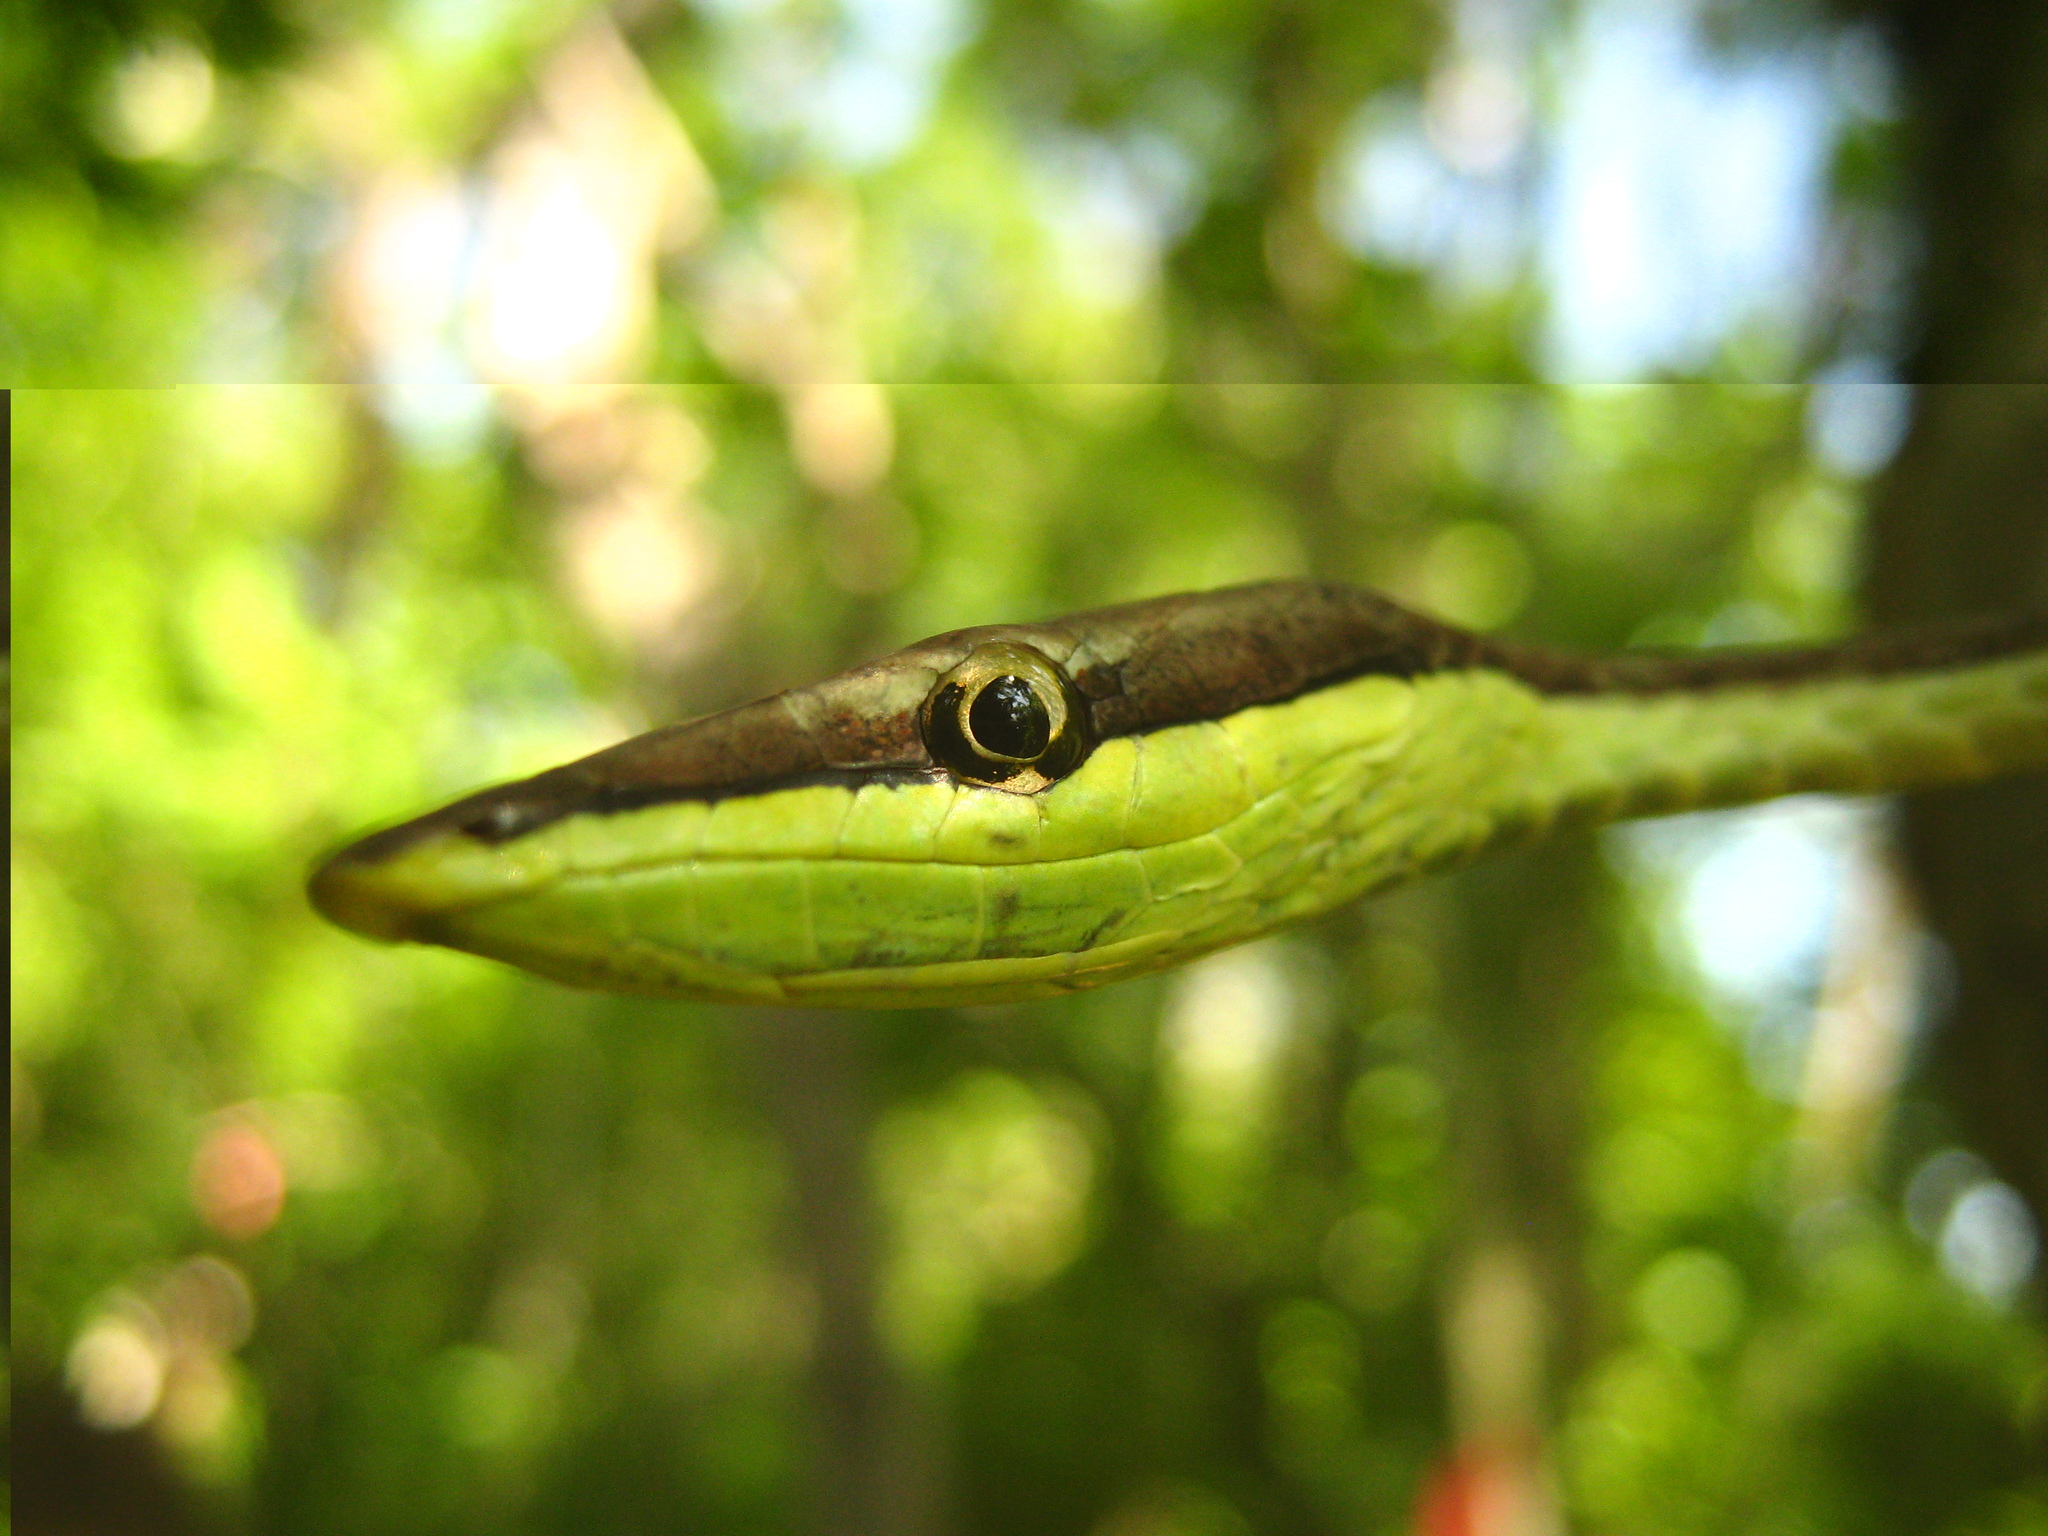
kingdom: Animalia
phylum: Chordata
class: Squamata
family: Colubridae
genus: Oxybelis
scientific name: Oxybelis microphthalmus
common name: Thrornscrub vine snake
